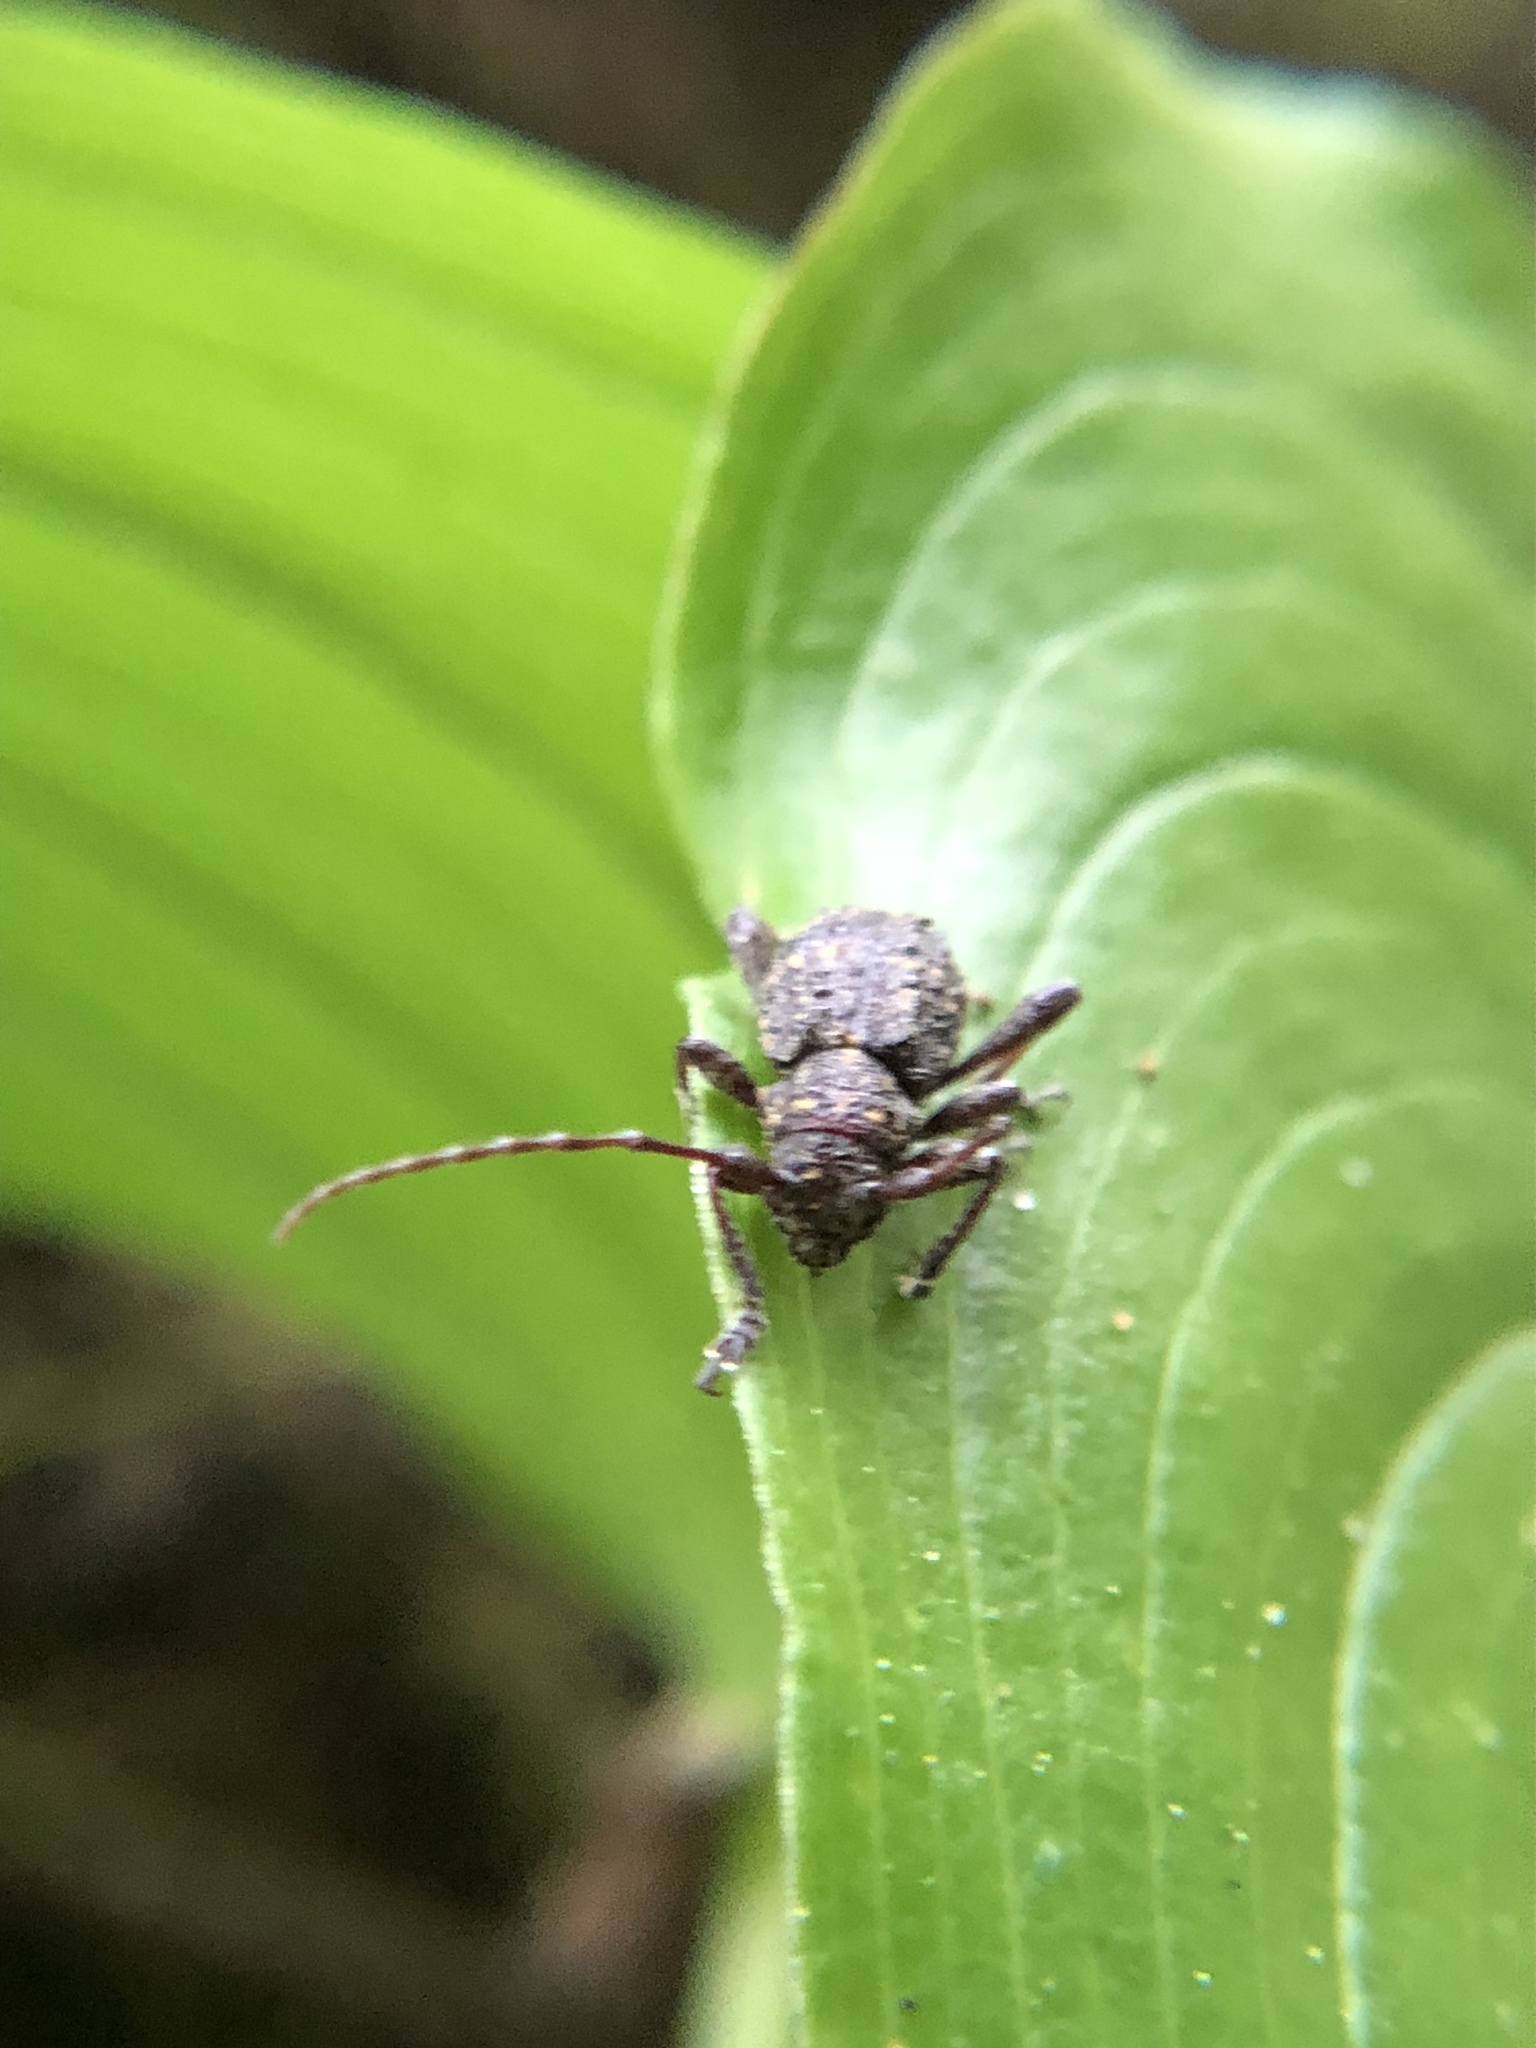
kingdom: Animalia
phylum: Arthropoda
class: Insecta
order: Coleoptera
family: Cerambycidae
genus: Plectrura
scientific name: Plectrura spinicauda
